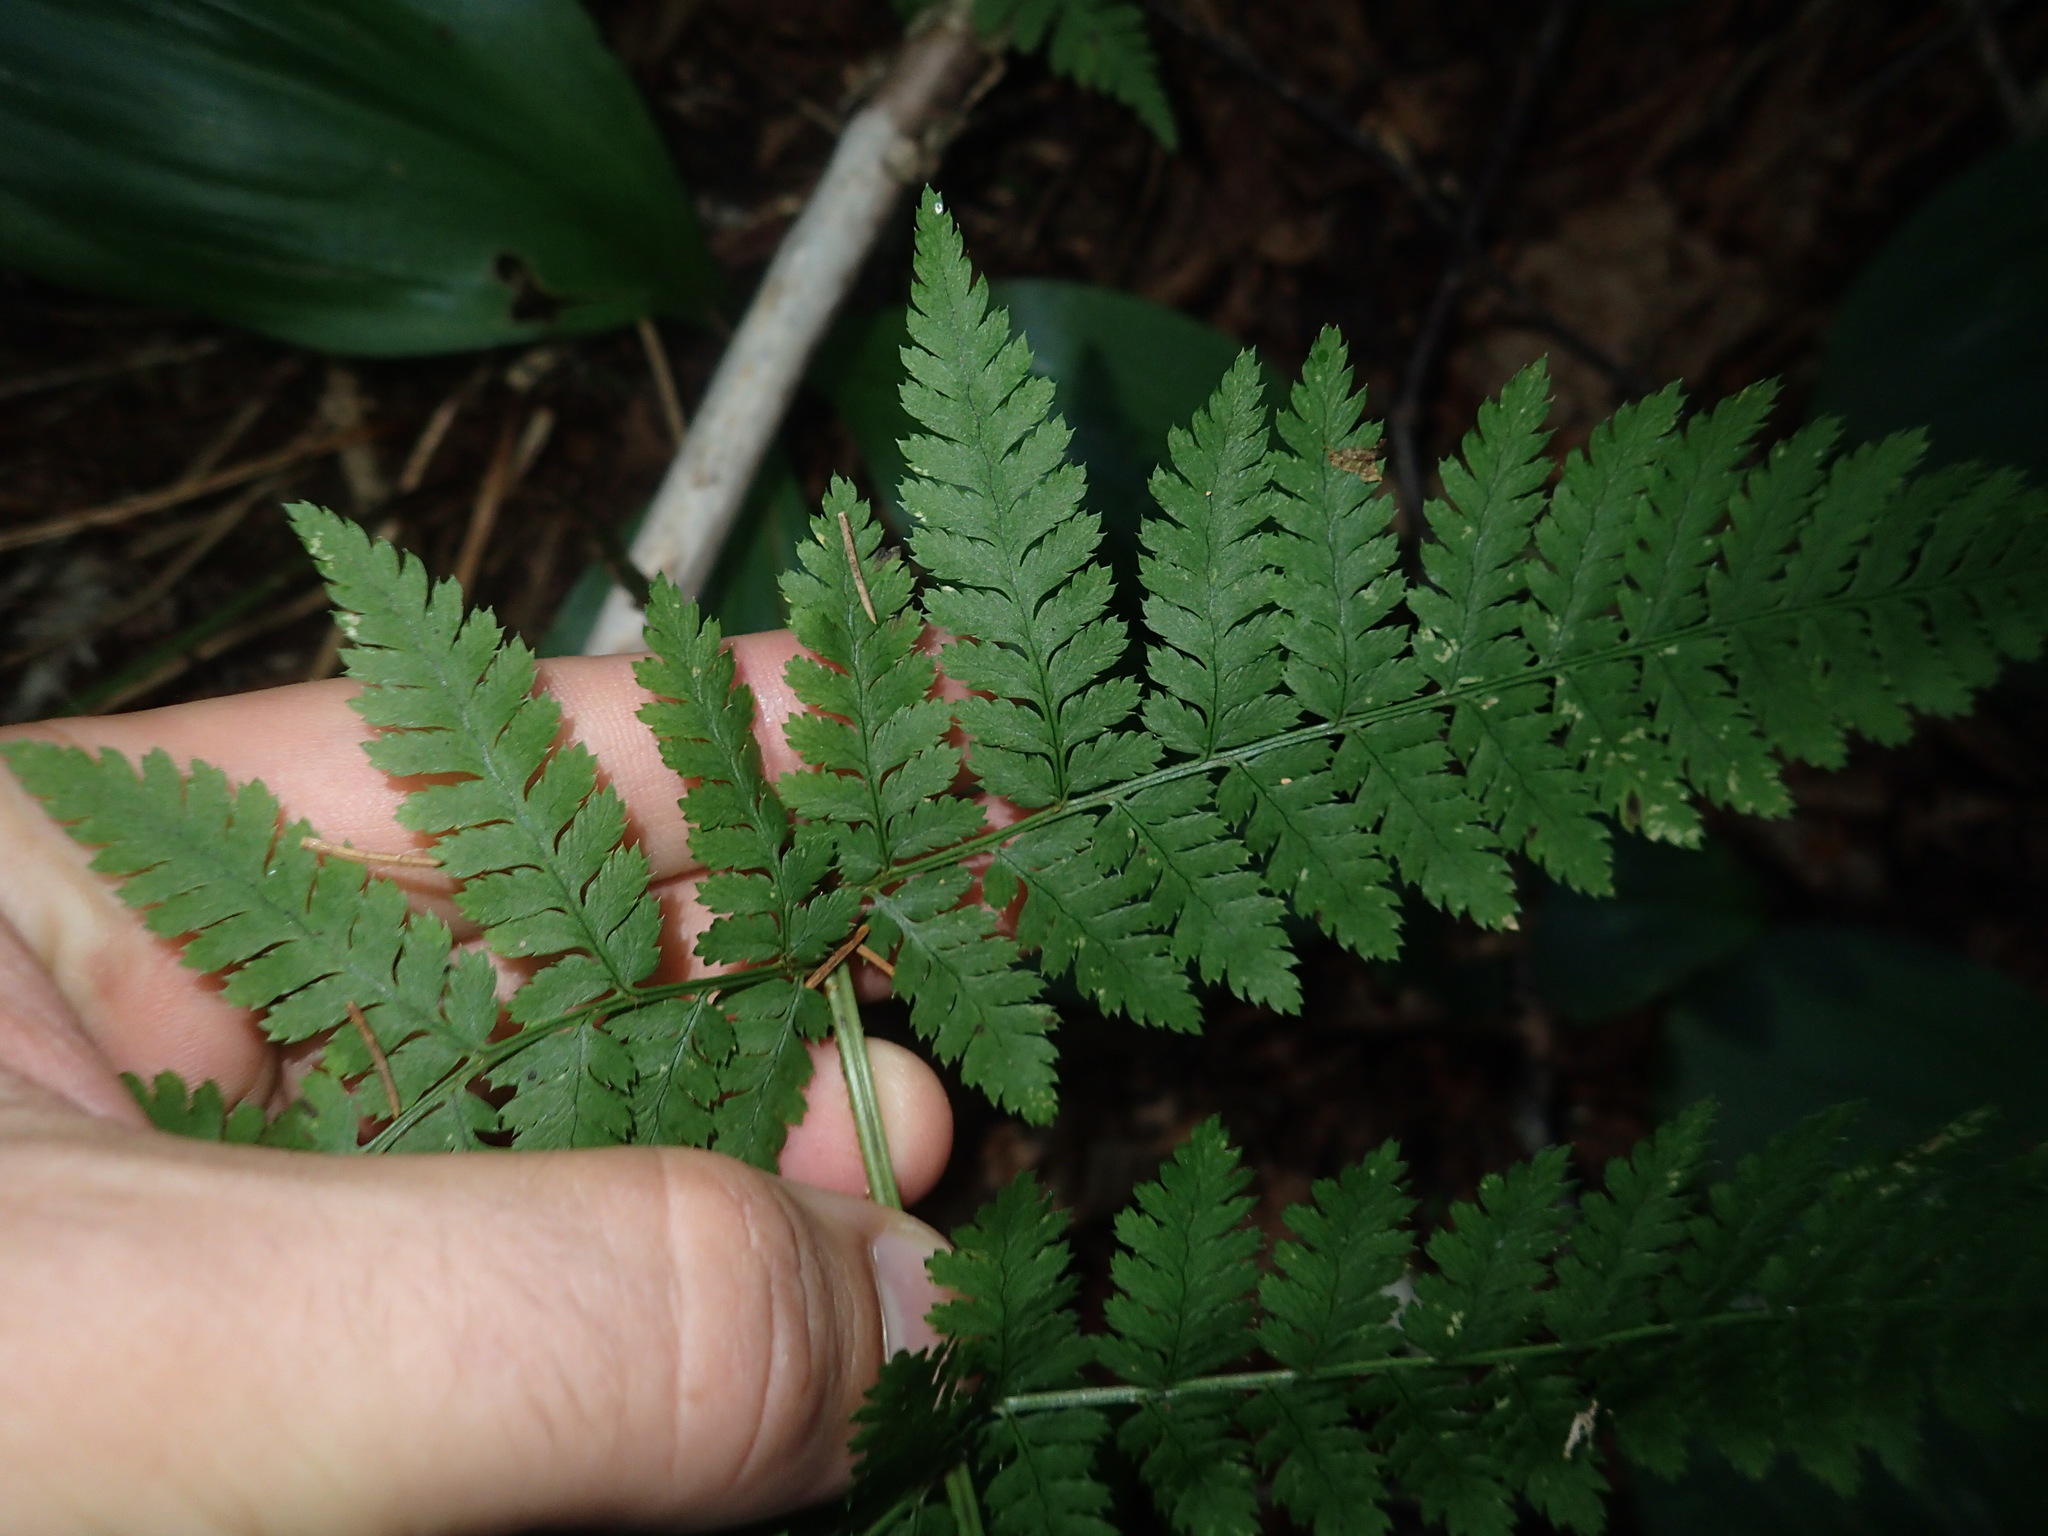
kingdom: Plantae
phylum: Tracheophyta
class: Polypodiopsida
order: Polypodiales
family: Dryopteridaceae
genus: Dryopteris
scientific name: Dryopteris intermedia
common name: Evergreen wood fern
